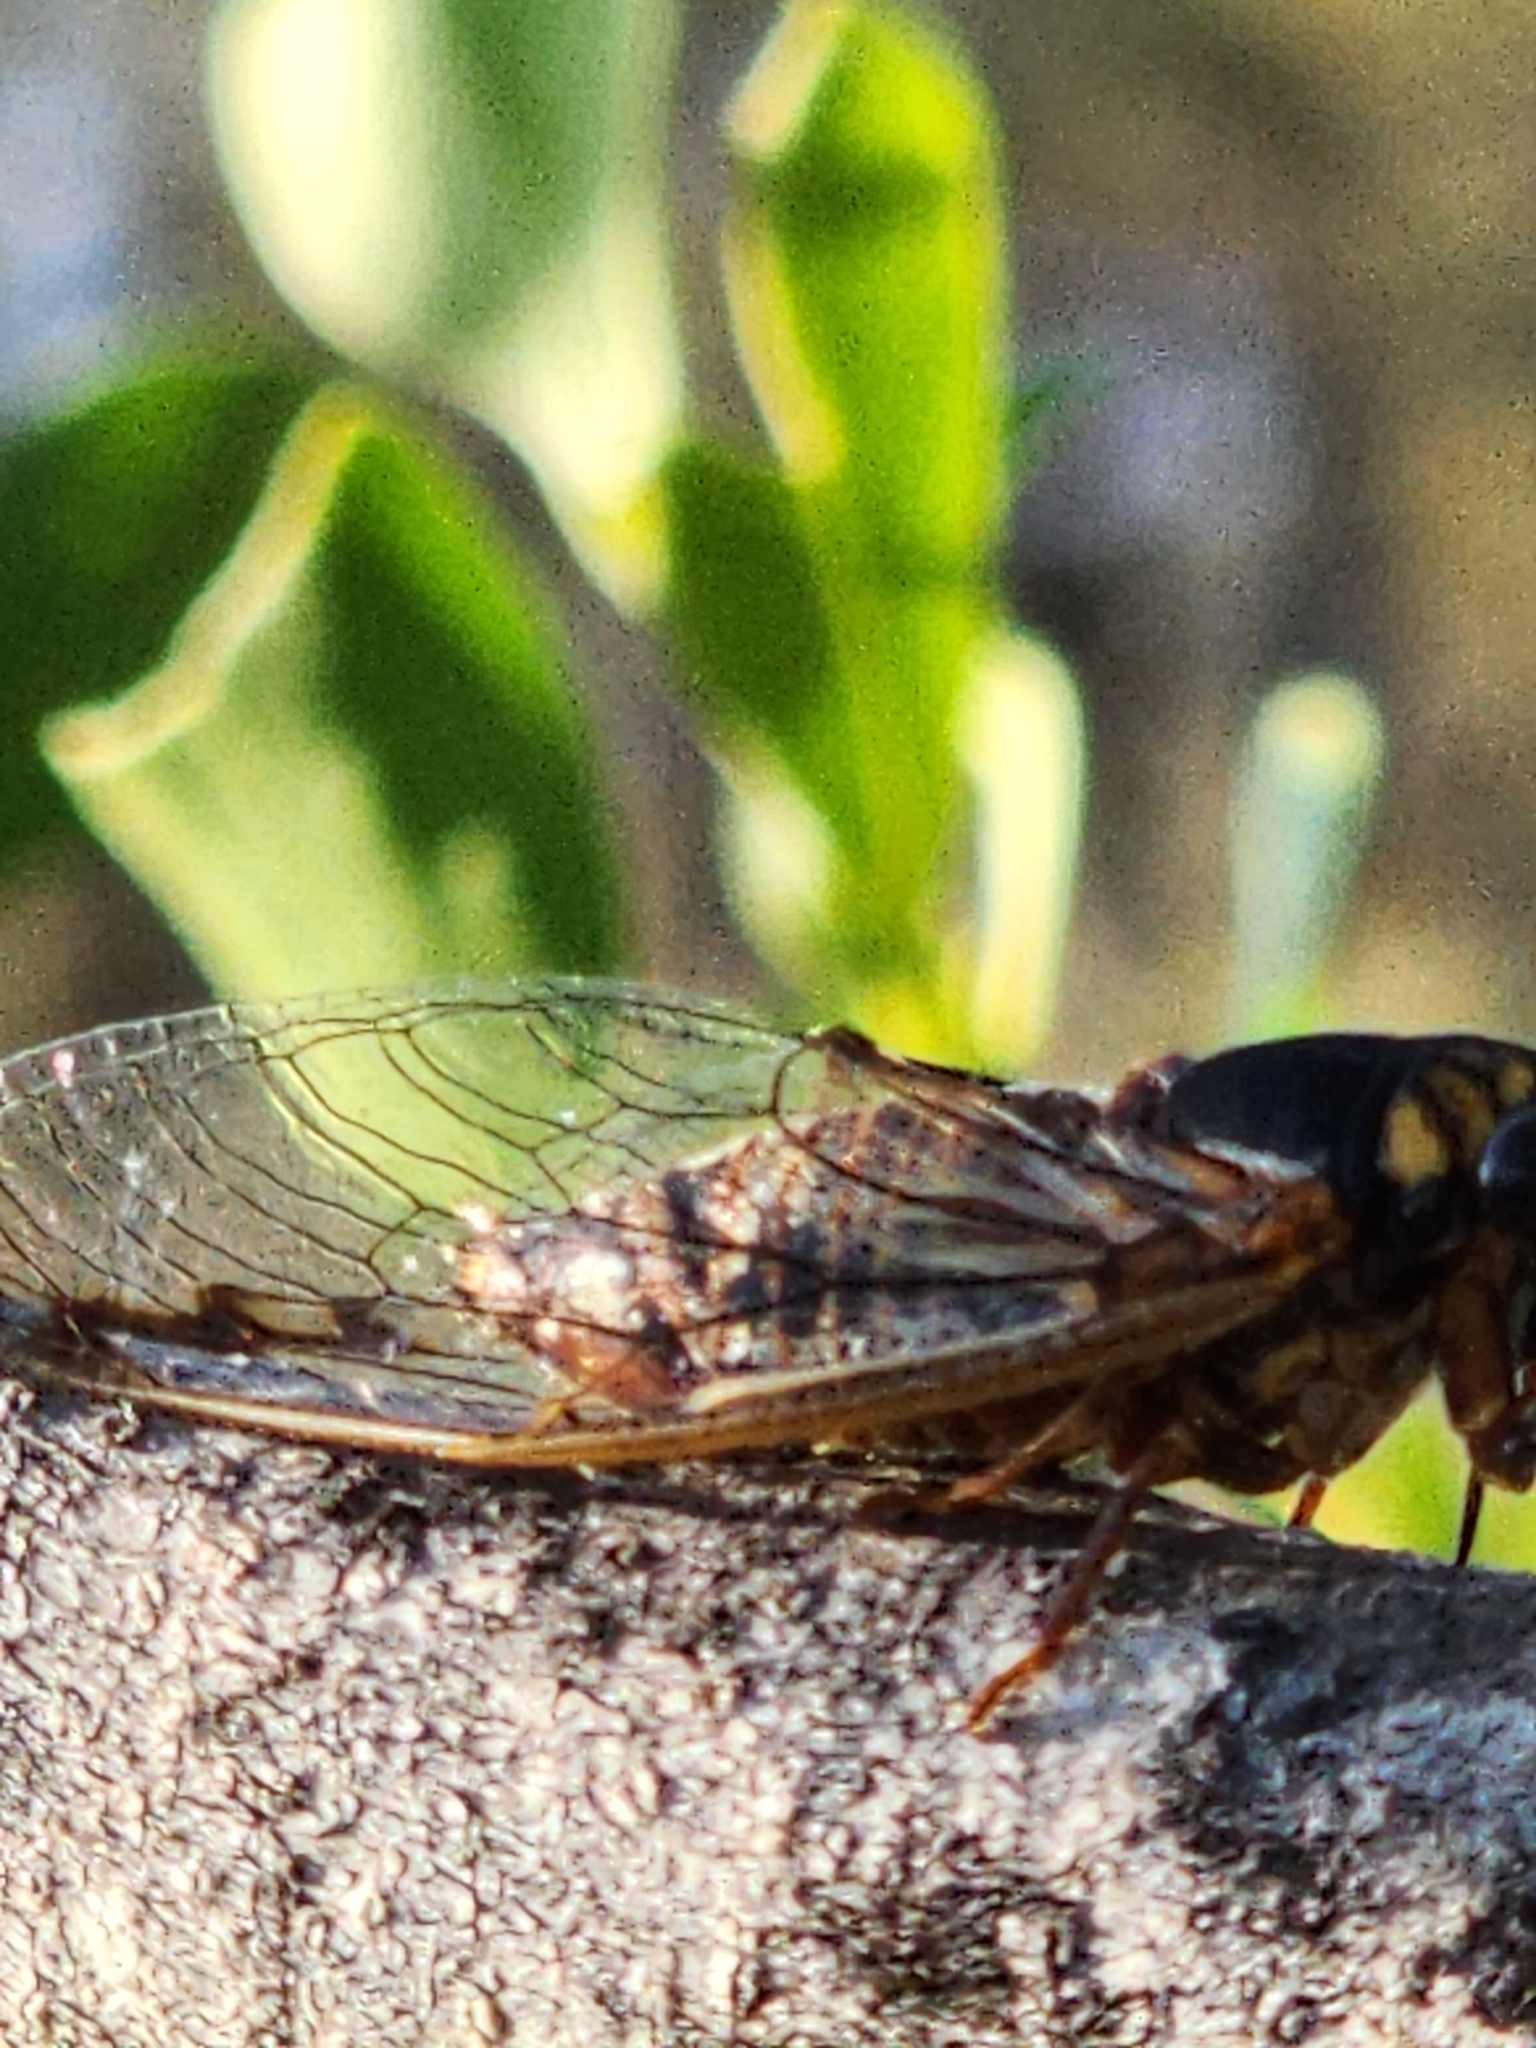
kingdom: Animalia
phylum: Arthropoda
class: Insecta
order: Hemiptera
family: Cicadidae
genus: Tryella
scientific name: Tryella willsi
